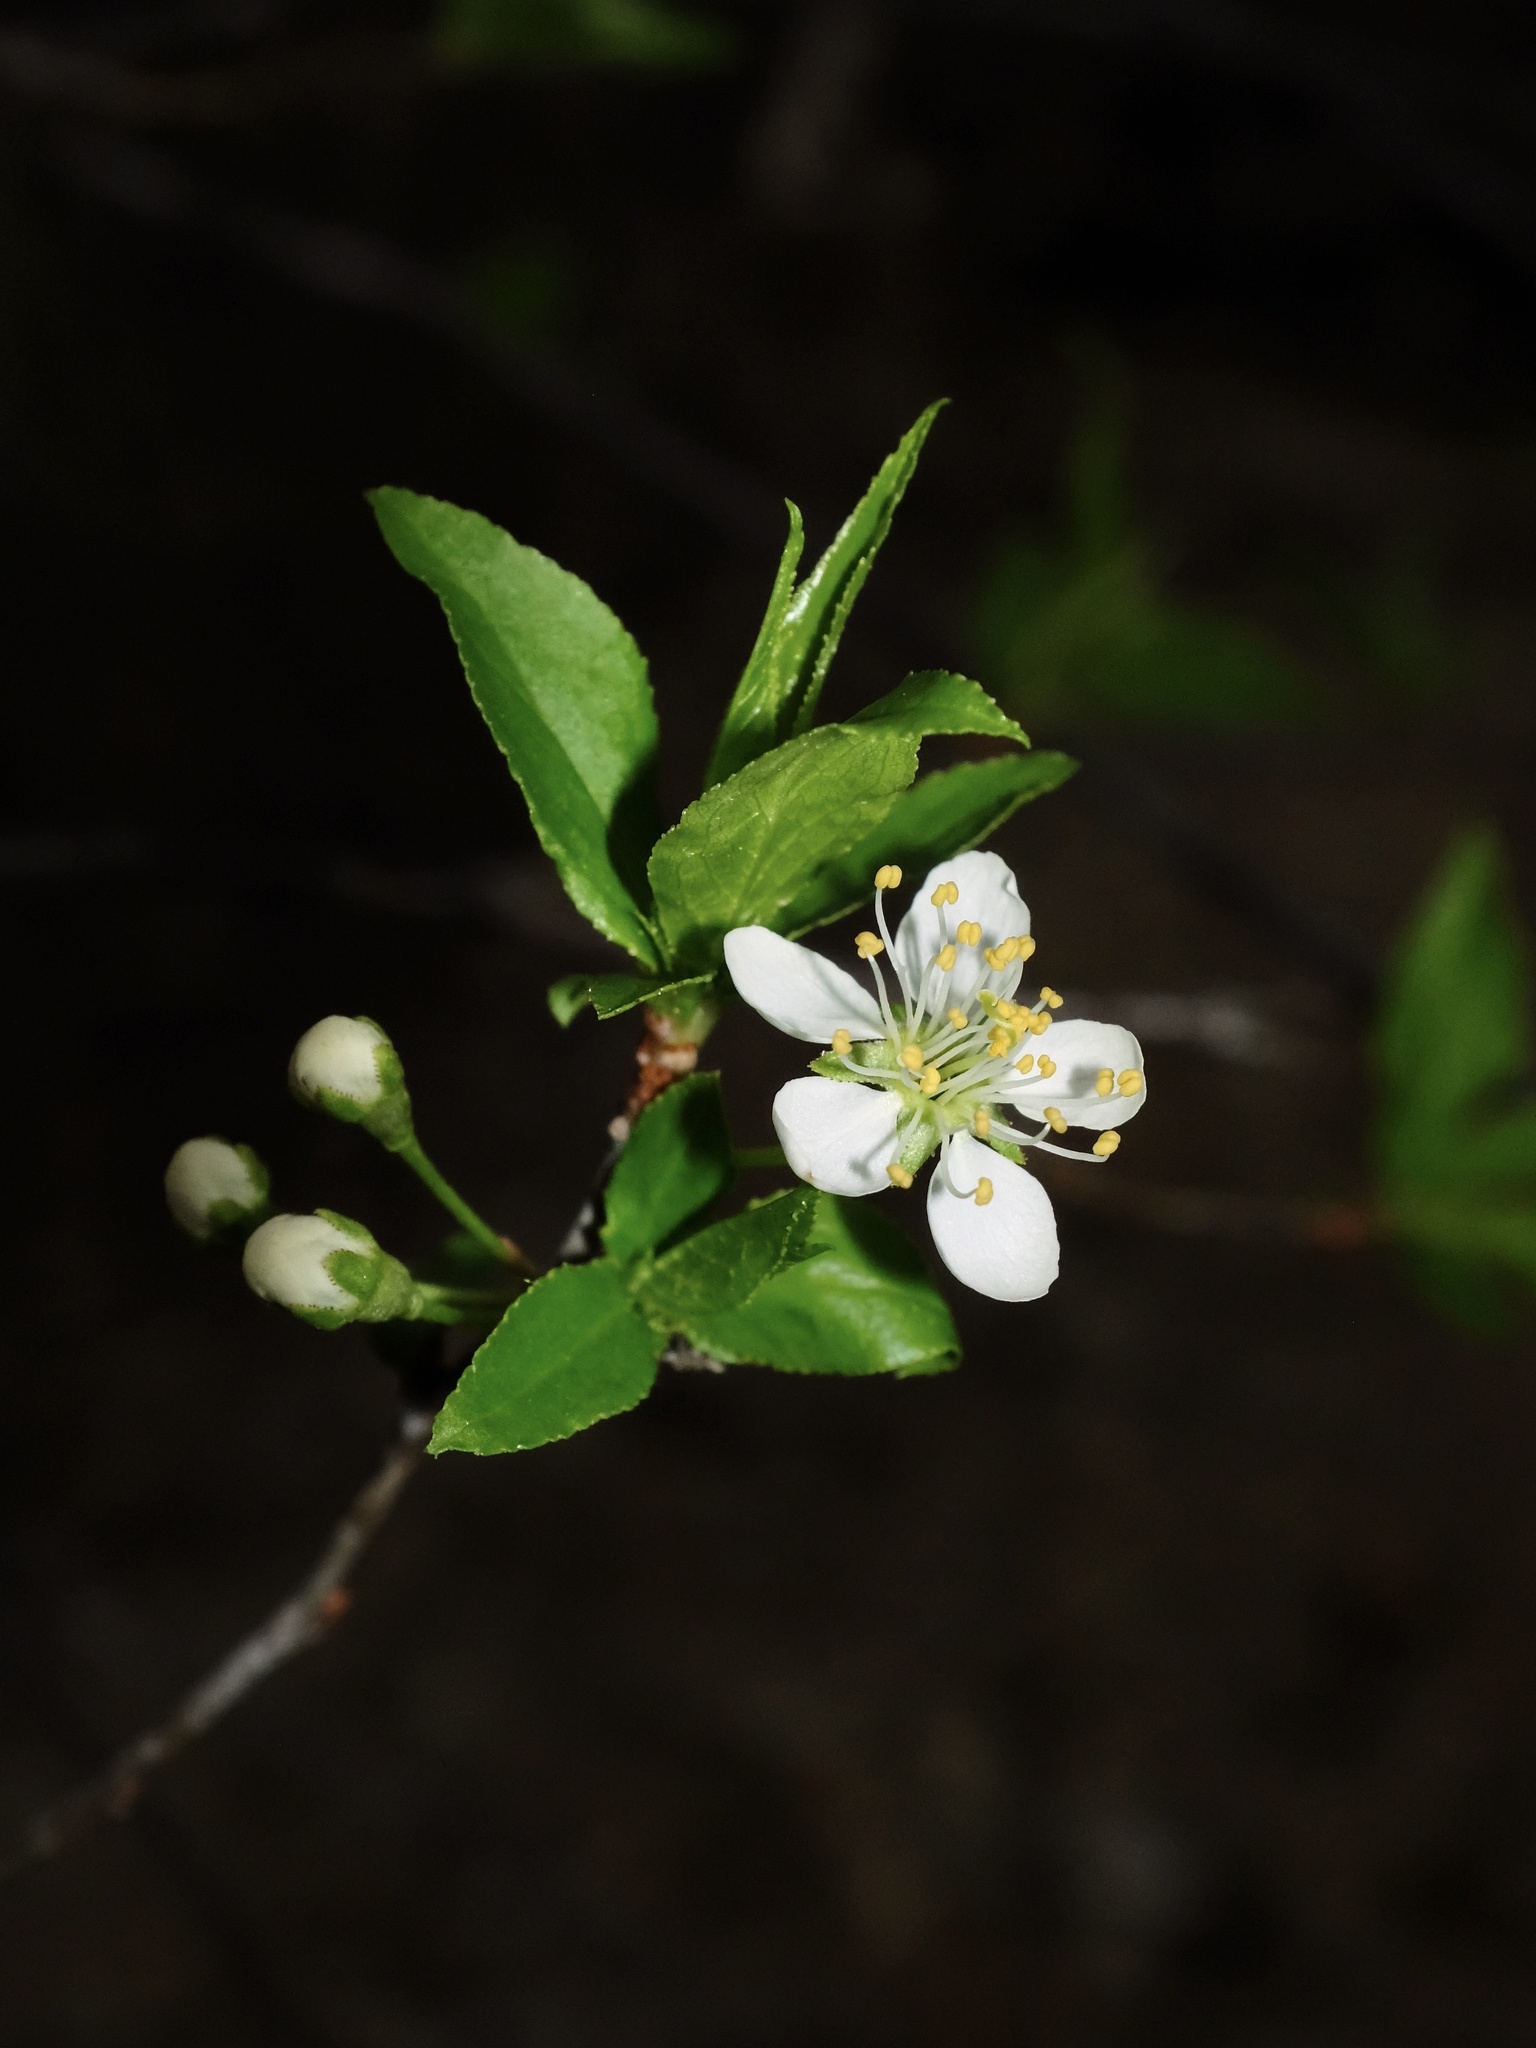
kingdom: Plantae
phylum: Tracheophyta
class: Magnoliopsida
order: Rosales
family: Rosaceae
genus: Prunus
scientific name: Prunus munsoniana
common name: Creek plum
